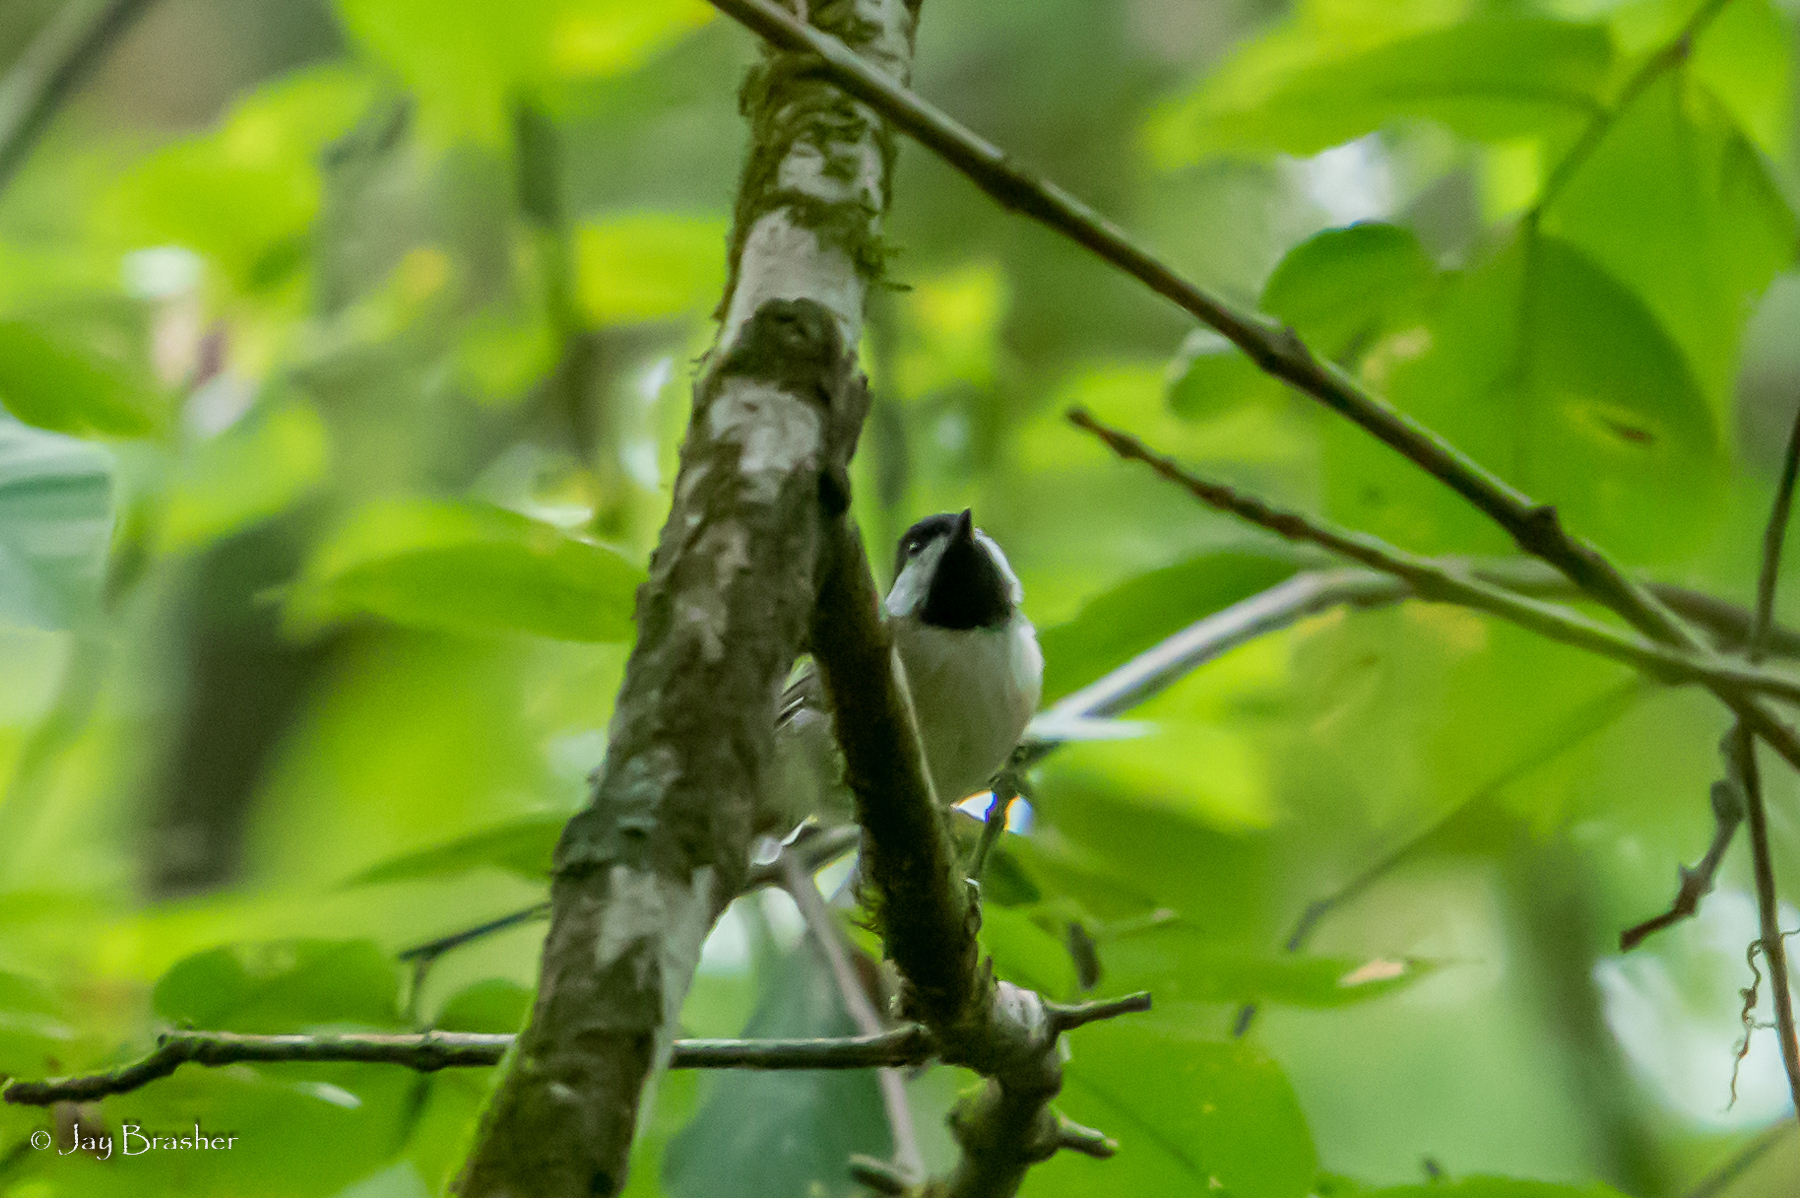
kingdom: Animalia
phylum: Chordata
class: Aves
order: Passeriformes
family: Paridae
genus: Poecile
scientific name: Poecile carolinensis
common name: Carolina chickadee
